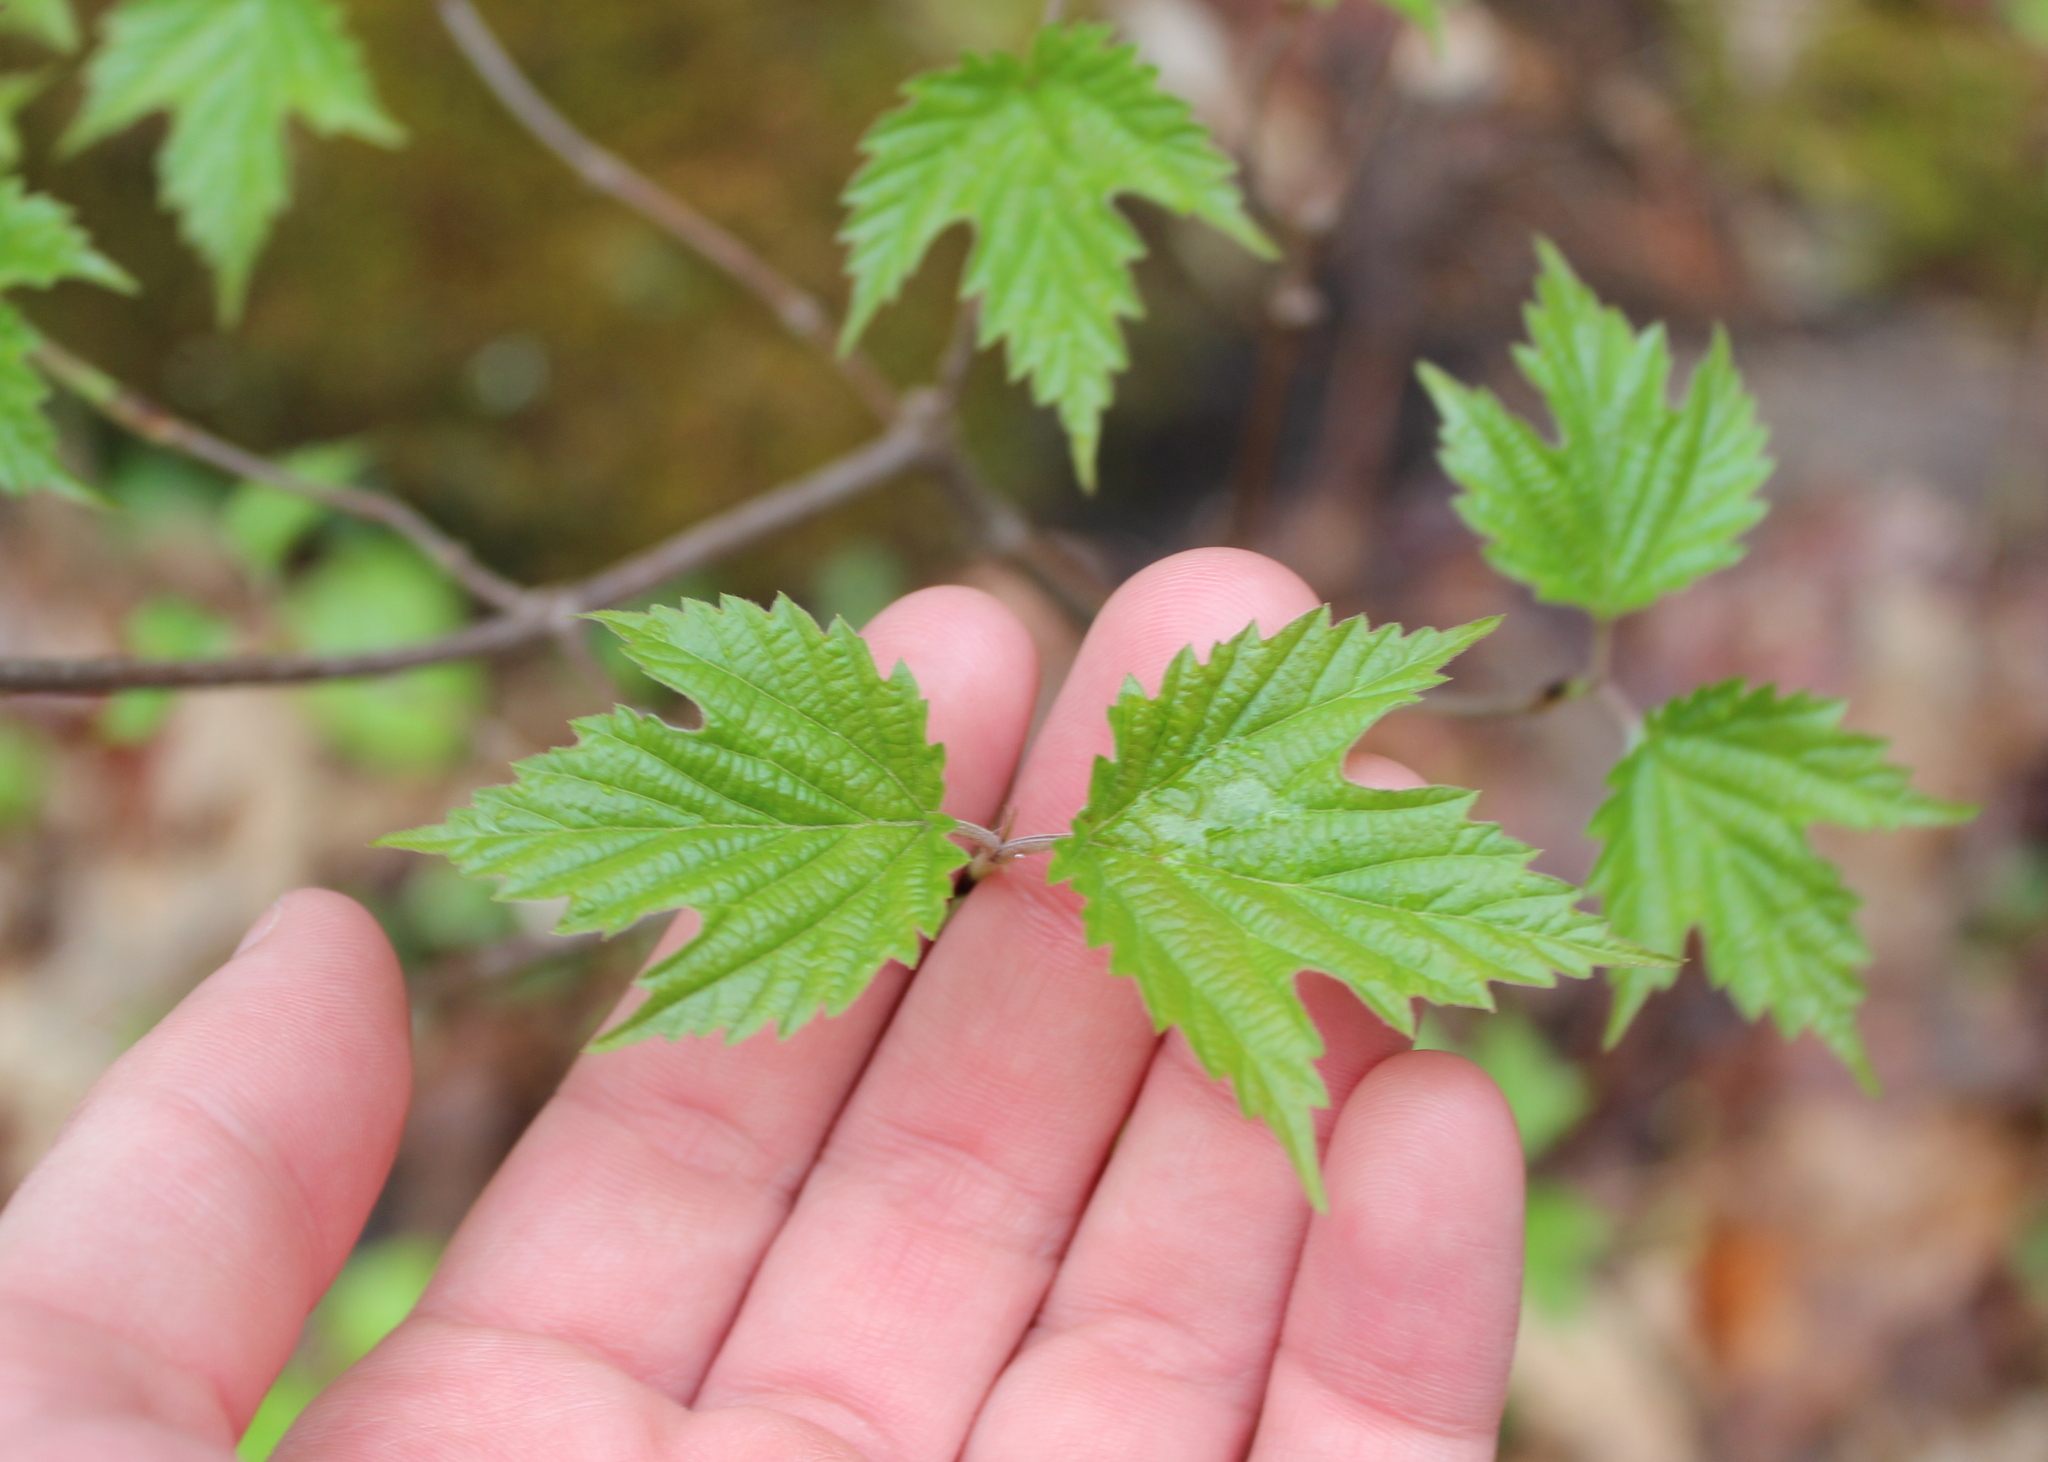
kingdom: Plantae
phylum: Tracheophyta
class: Magnoliopsida
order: Dipsacales
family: Viburnaceae
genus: Viburnum
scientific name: Viburnum acerifolium
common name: Dockmackie
